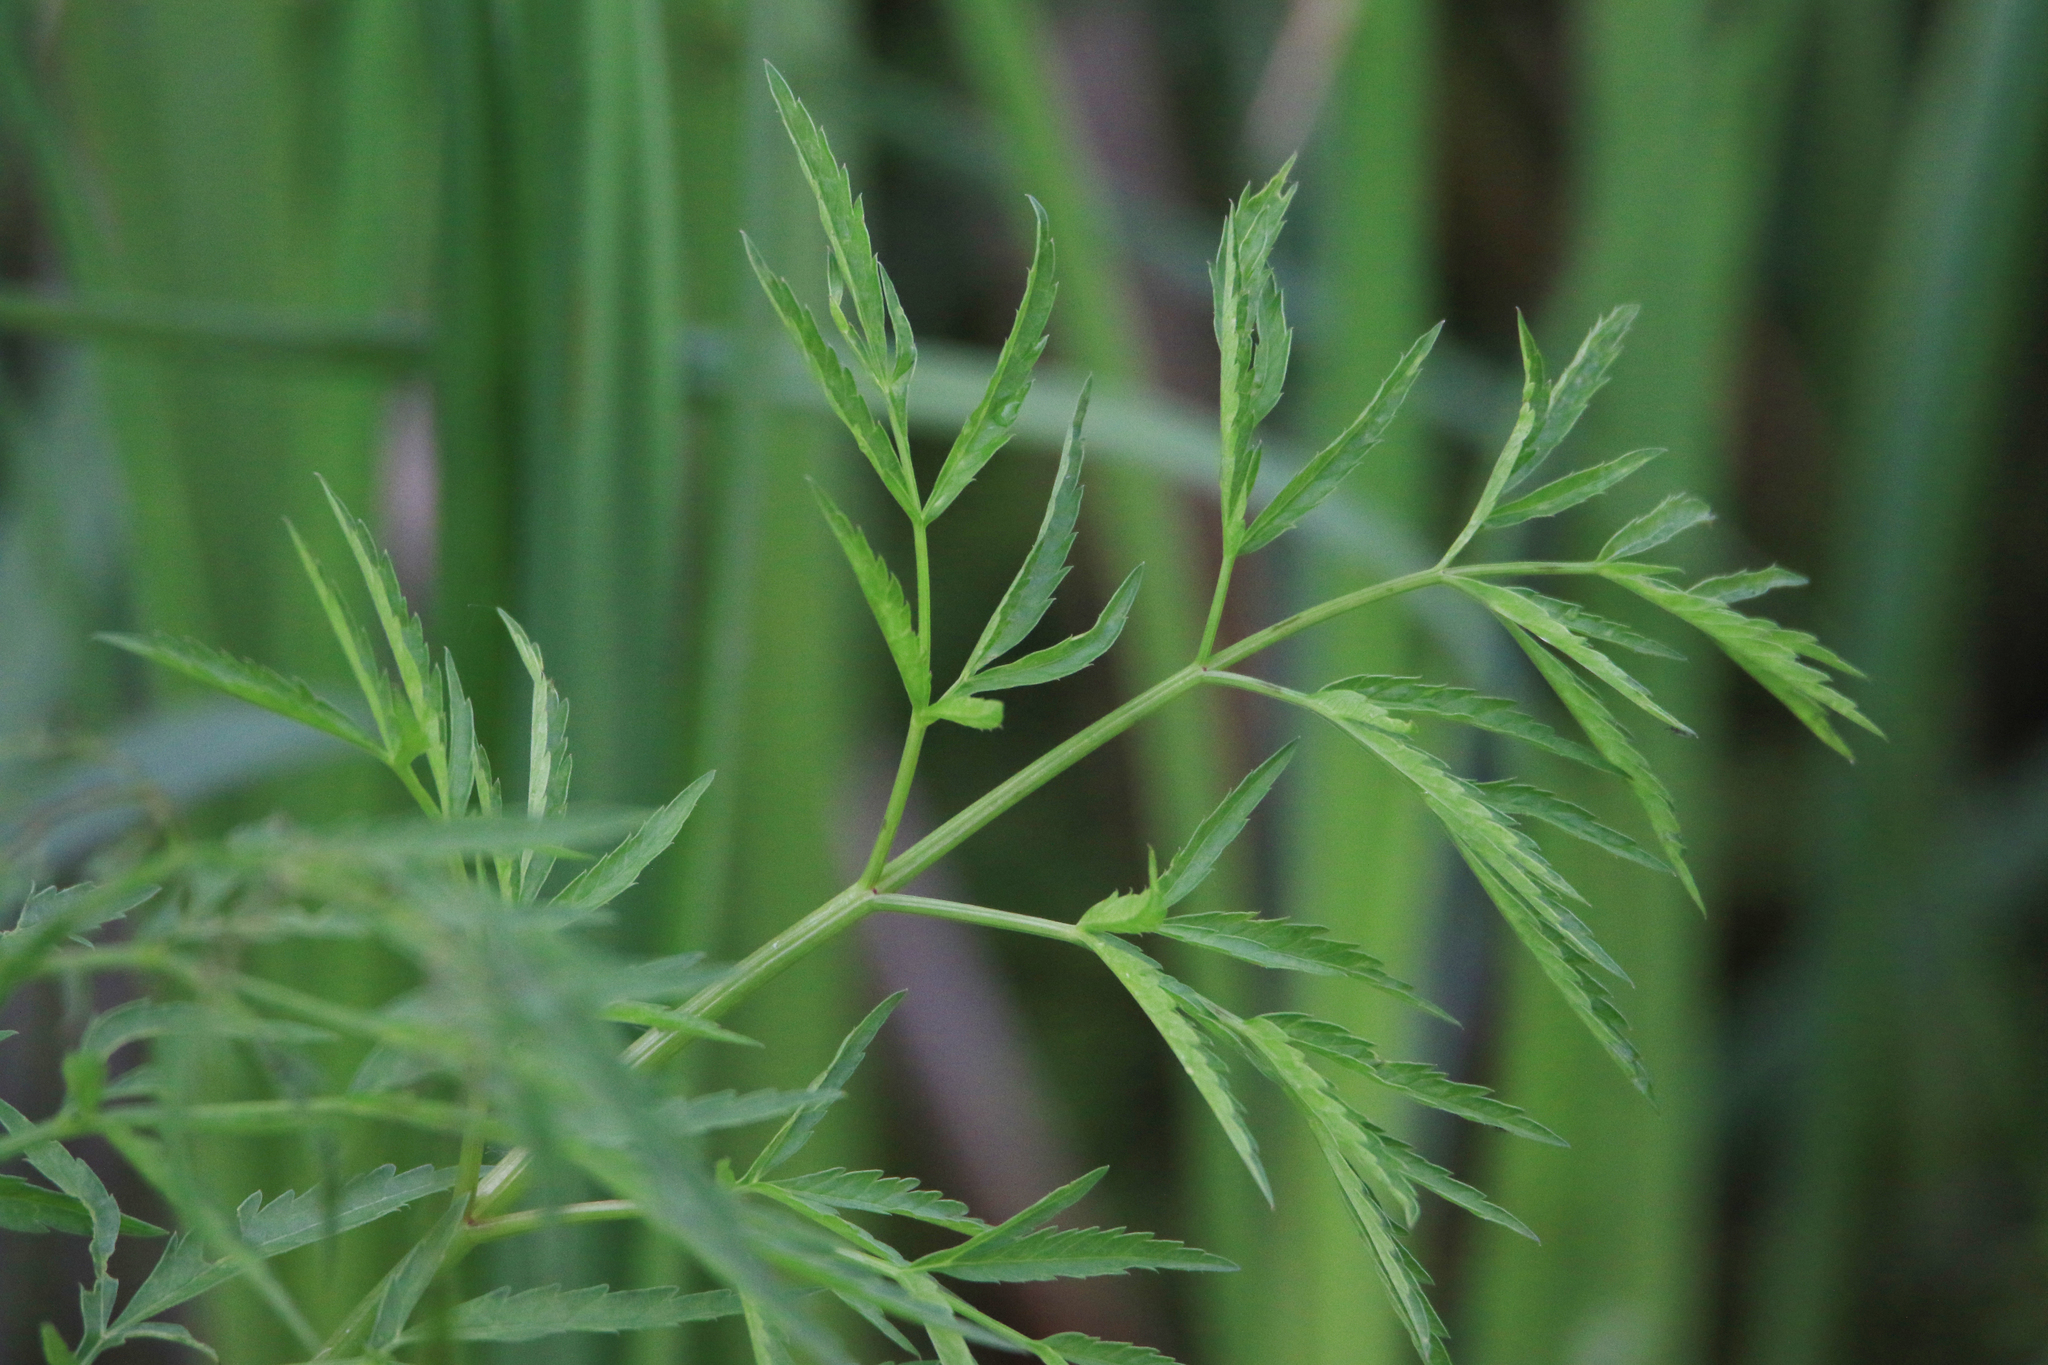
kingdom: Plantae
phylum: Tracheophyta
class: Magnoliopsida
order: Apiales
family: Apiaceae
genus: Cicuta
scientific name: Cicuta virosa
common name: Cowbane
